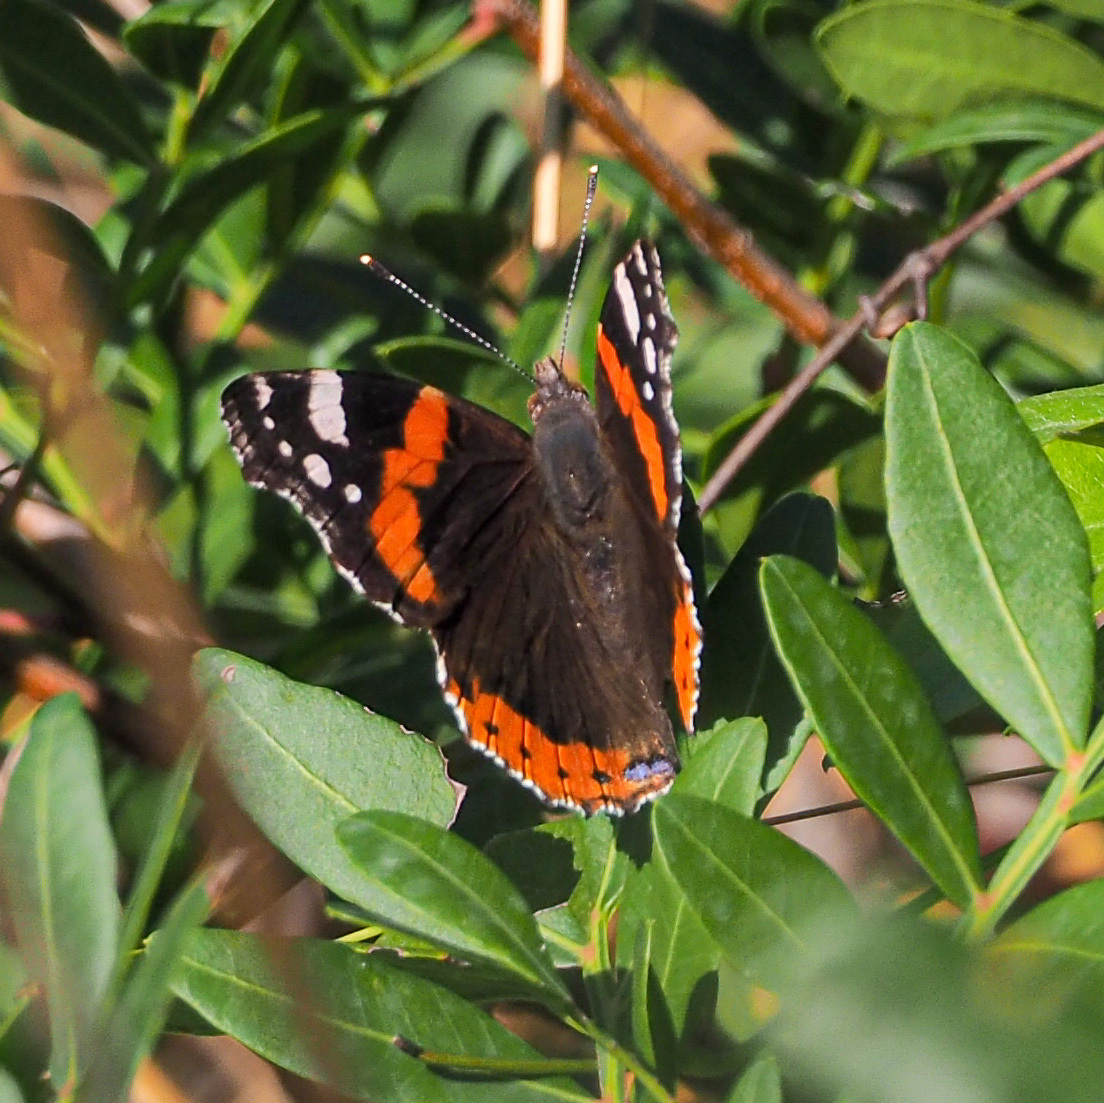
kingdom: Animalia
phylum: Arthropoda
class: Insecta
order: Lepidoptera
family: Nymphalidae
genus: Vanessa
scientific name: Vanessa atalanta
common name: Red admiral
